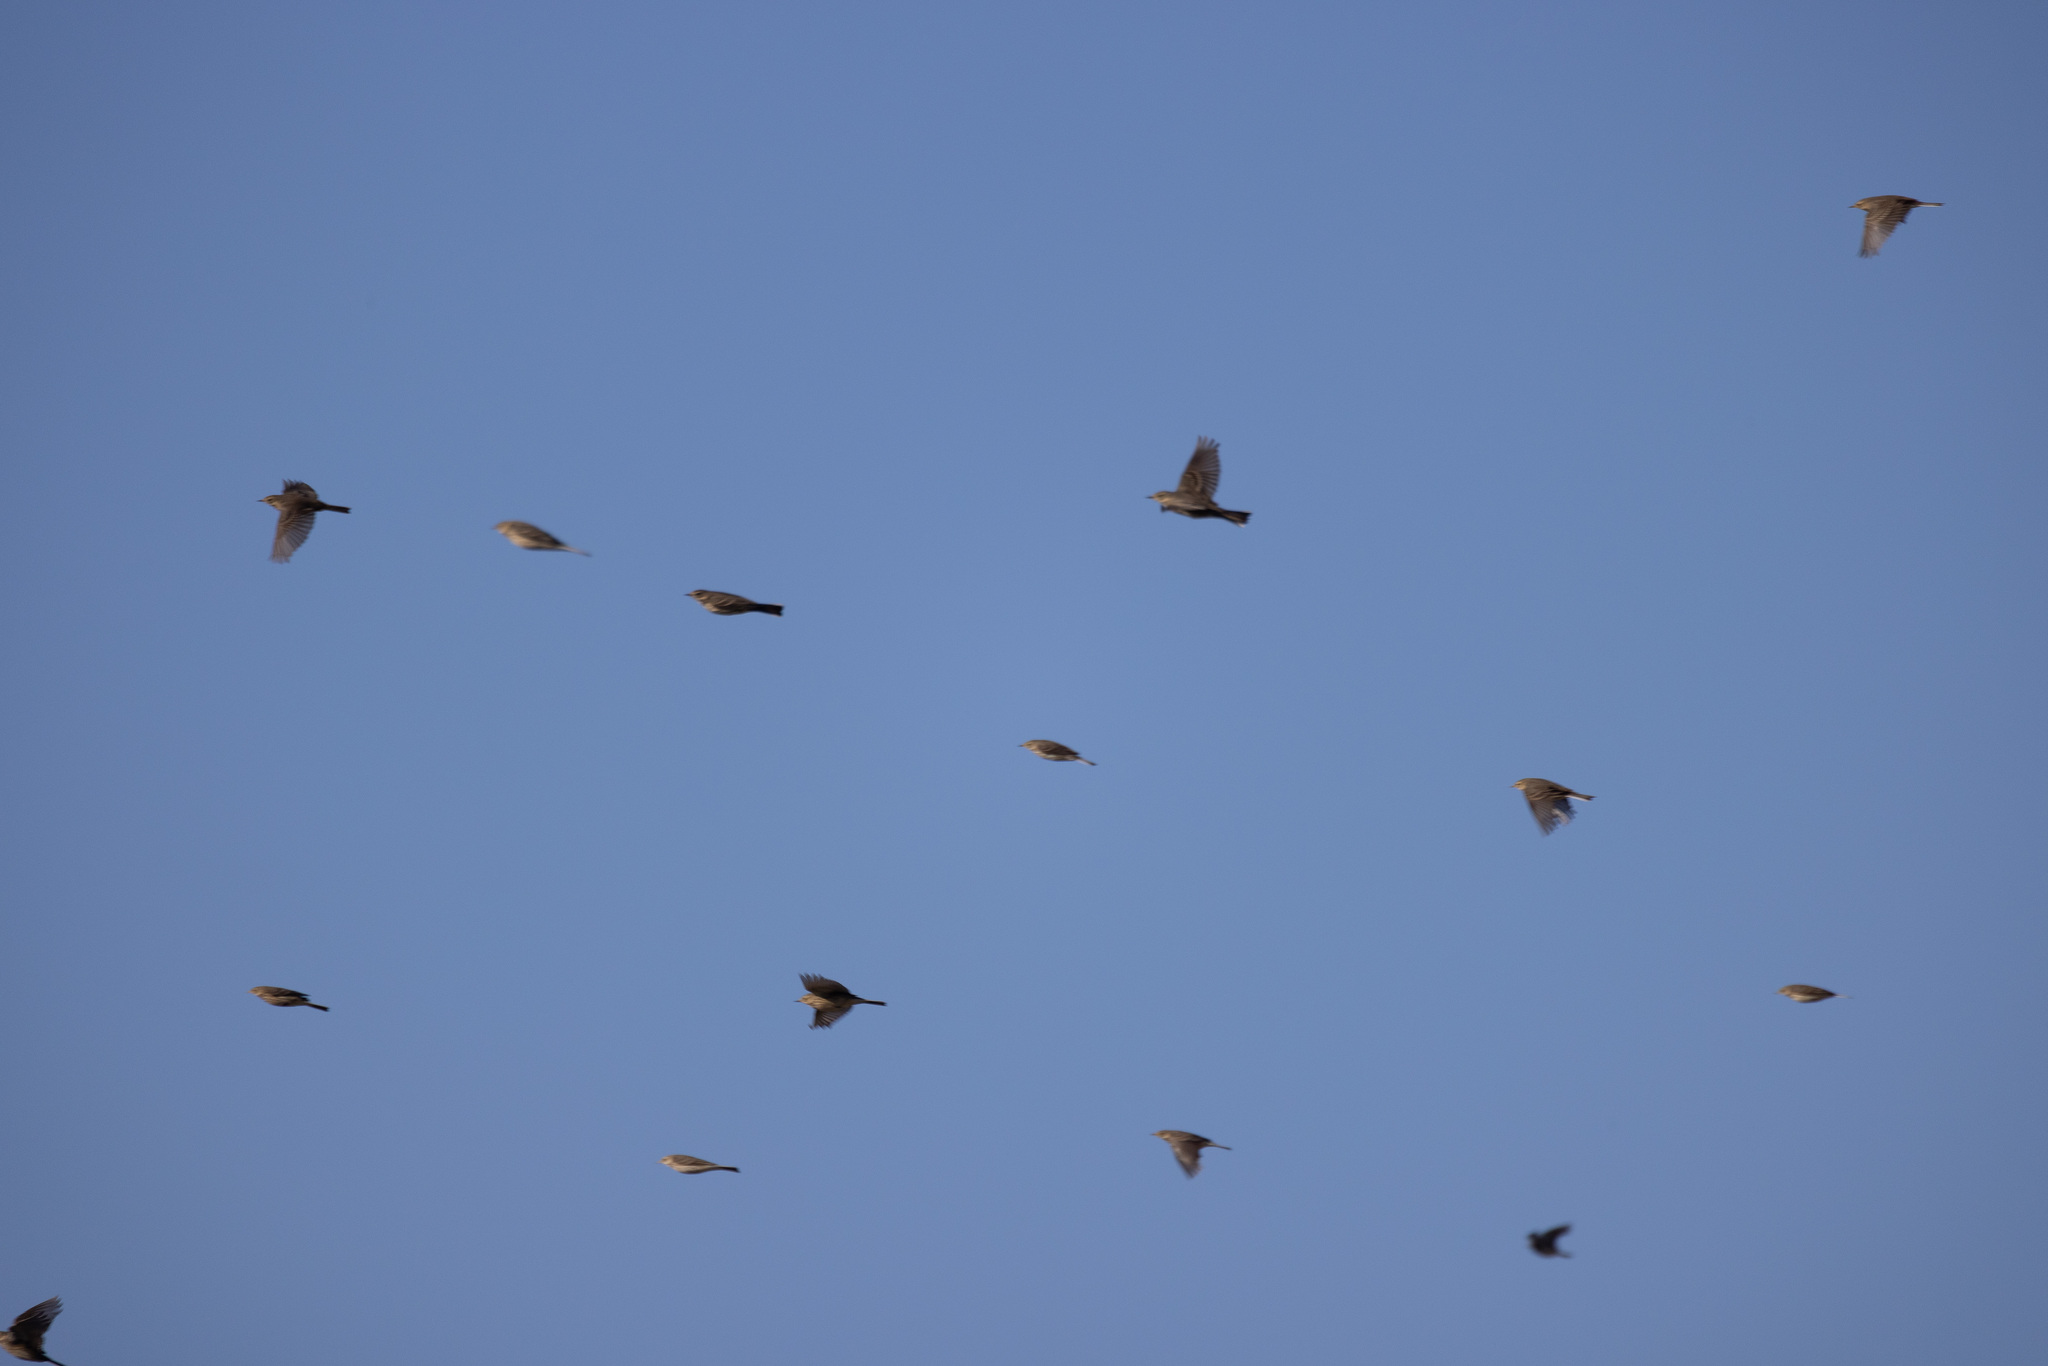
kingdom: Animalia
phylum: Chordata
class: Aves
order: Passeriformes
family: Motacillidae
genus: Anthus
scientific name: Anthus rubescens
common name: Buff-bellied pipit
